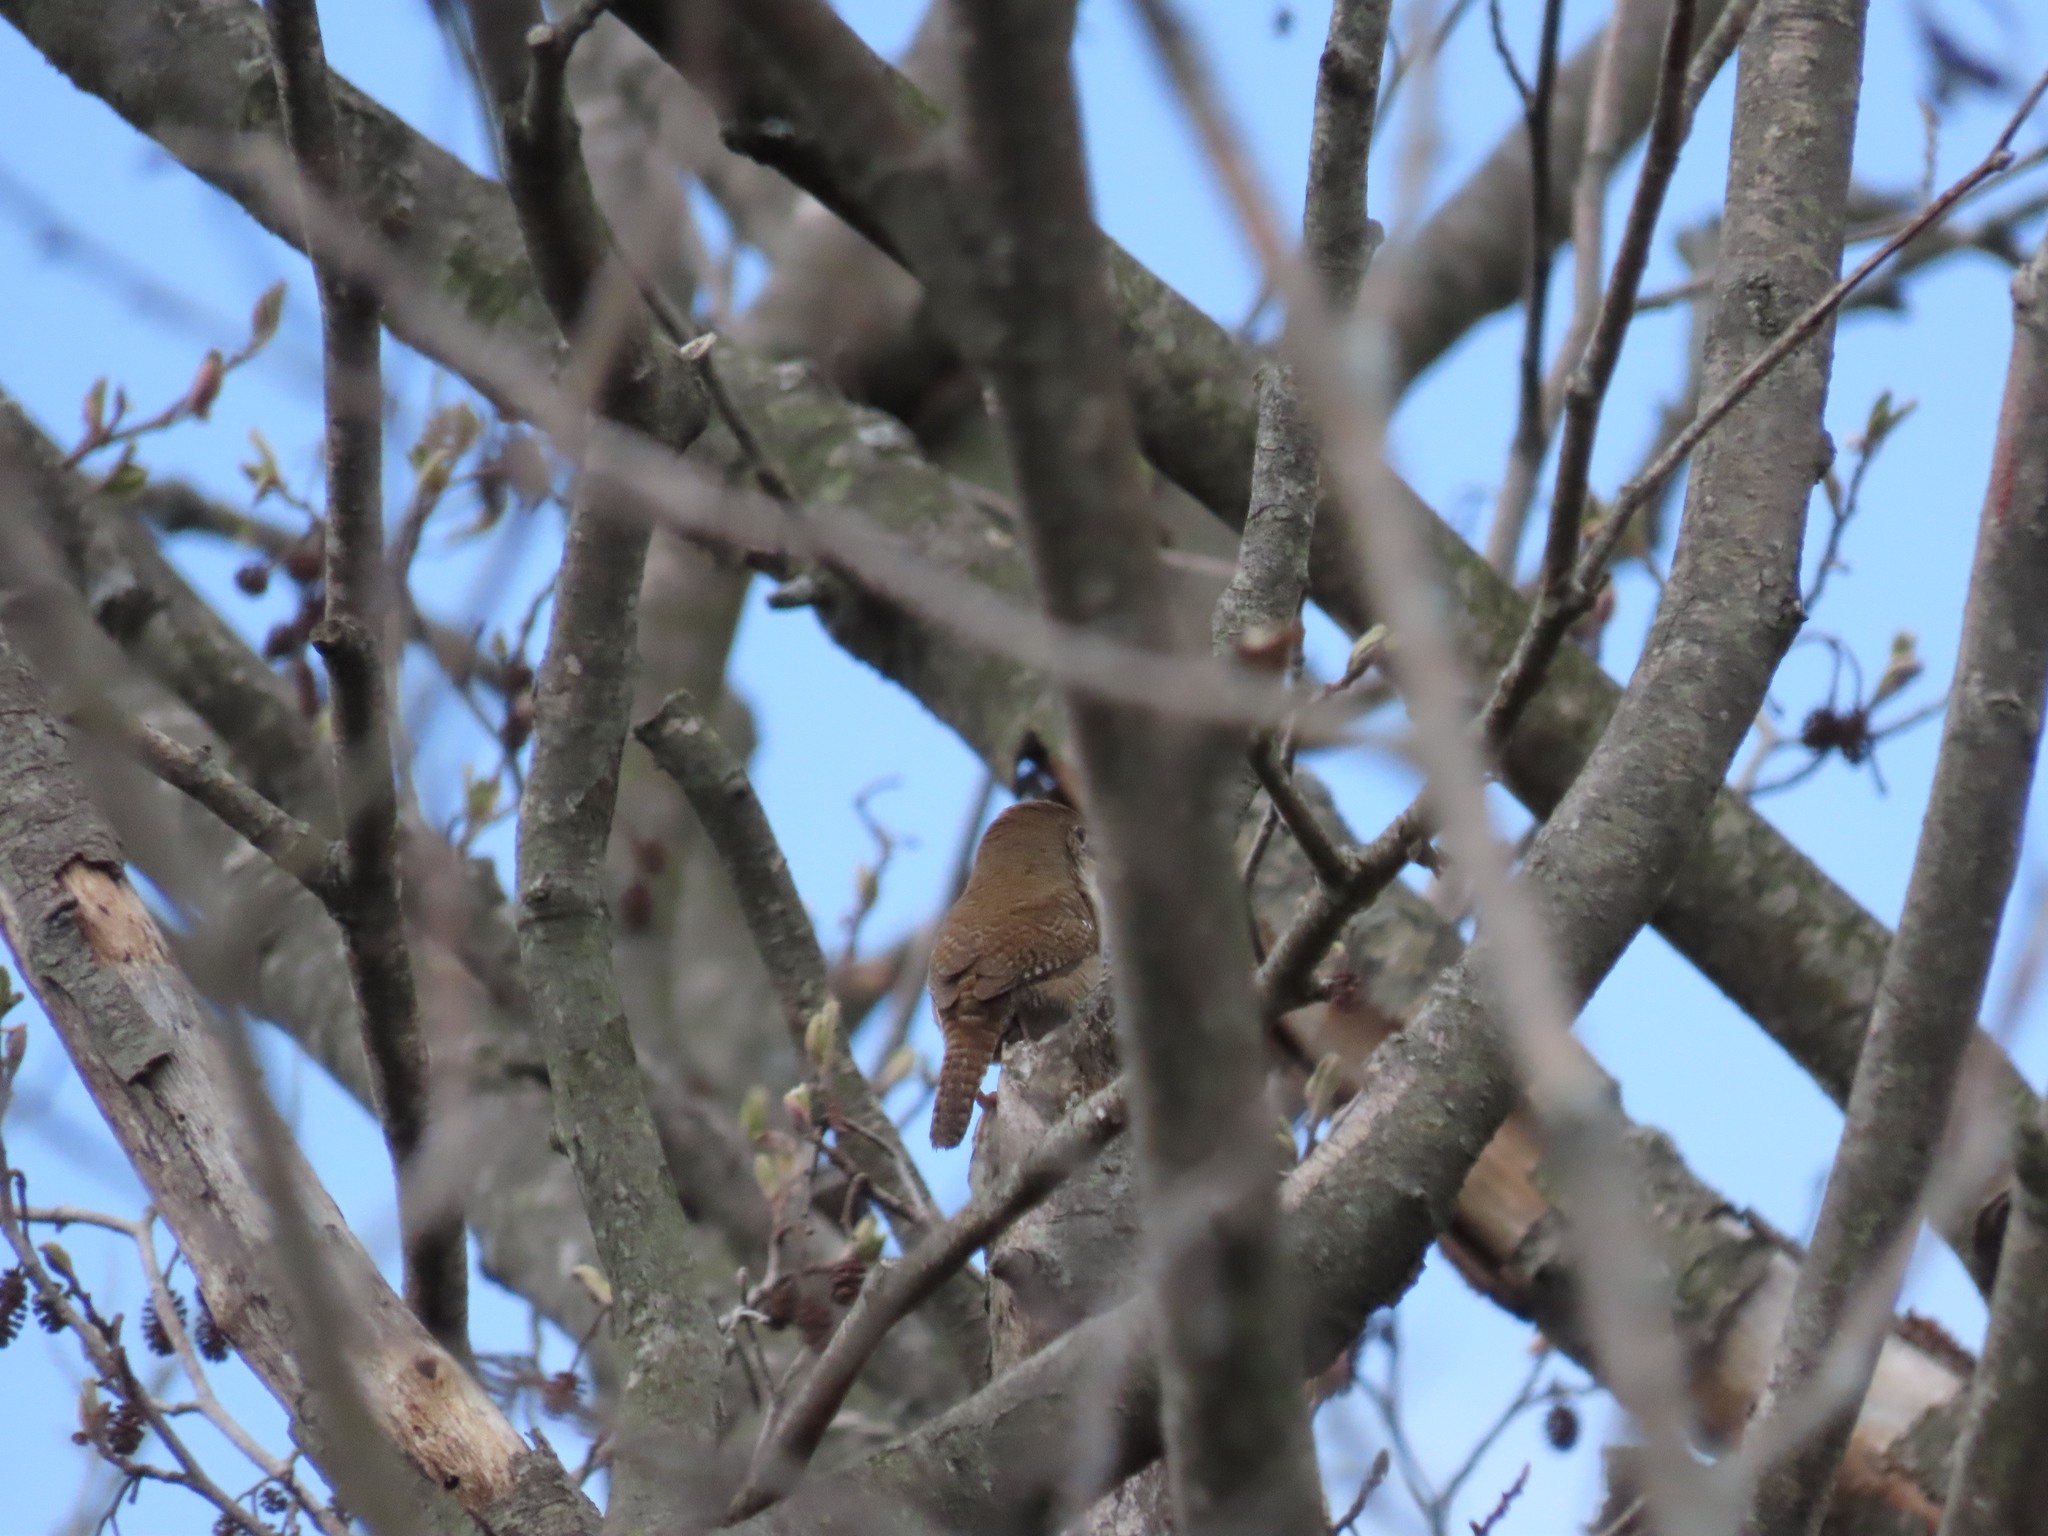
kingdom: Animalia
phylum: Chordata
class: Aves
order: Passeriformes
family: Troglodytidae
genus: Troglodytes
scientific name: Troglodytes aedon
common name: House wren
